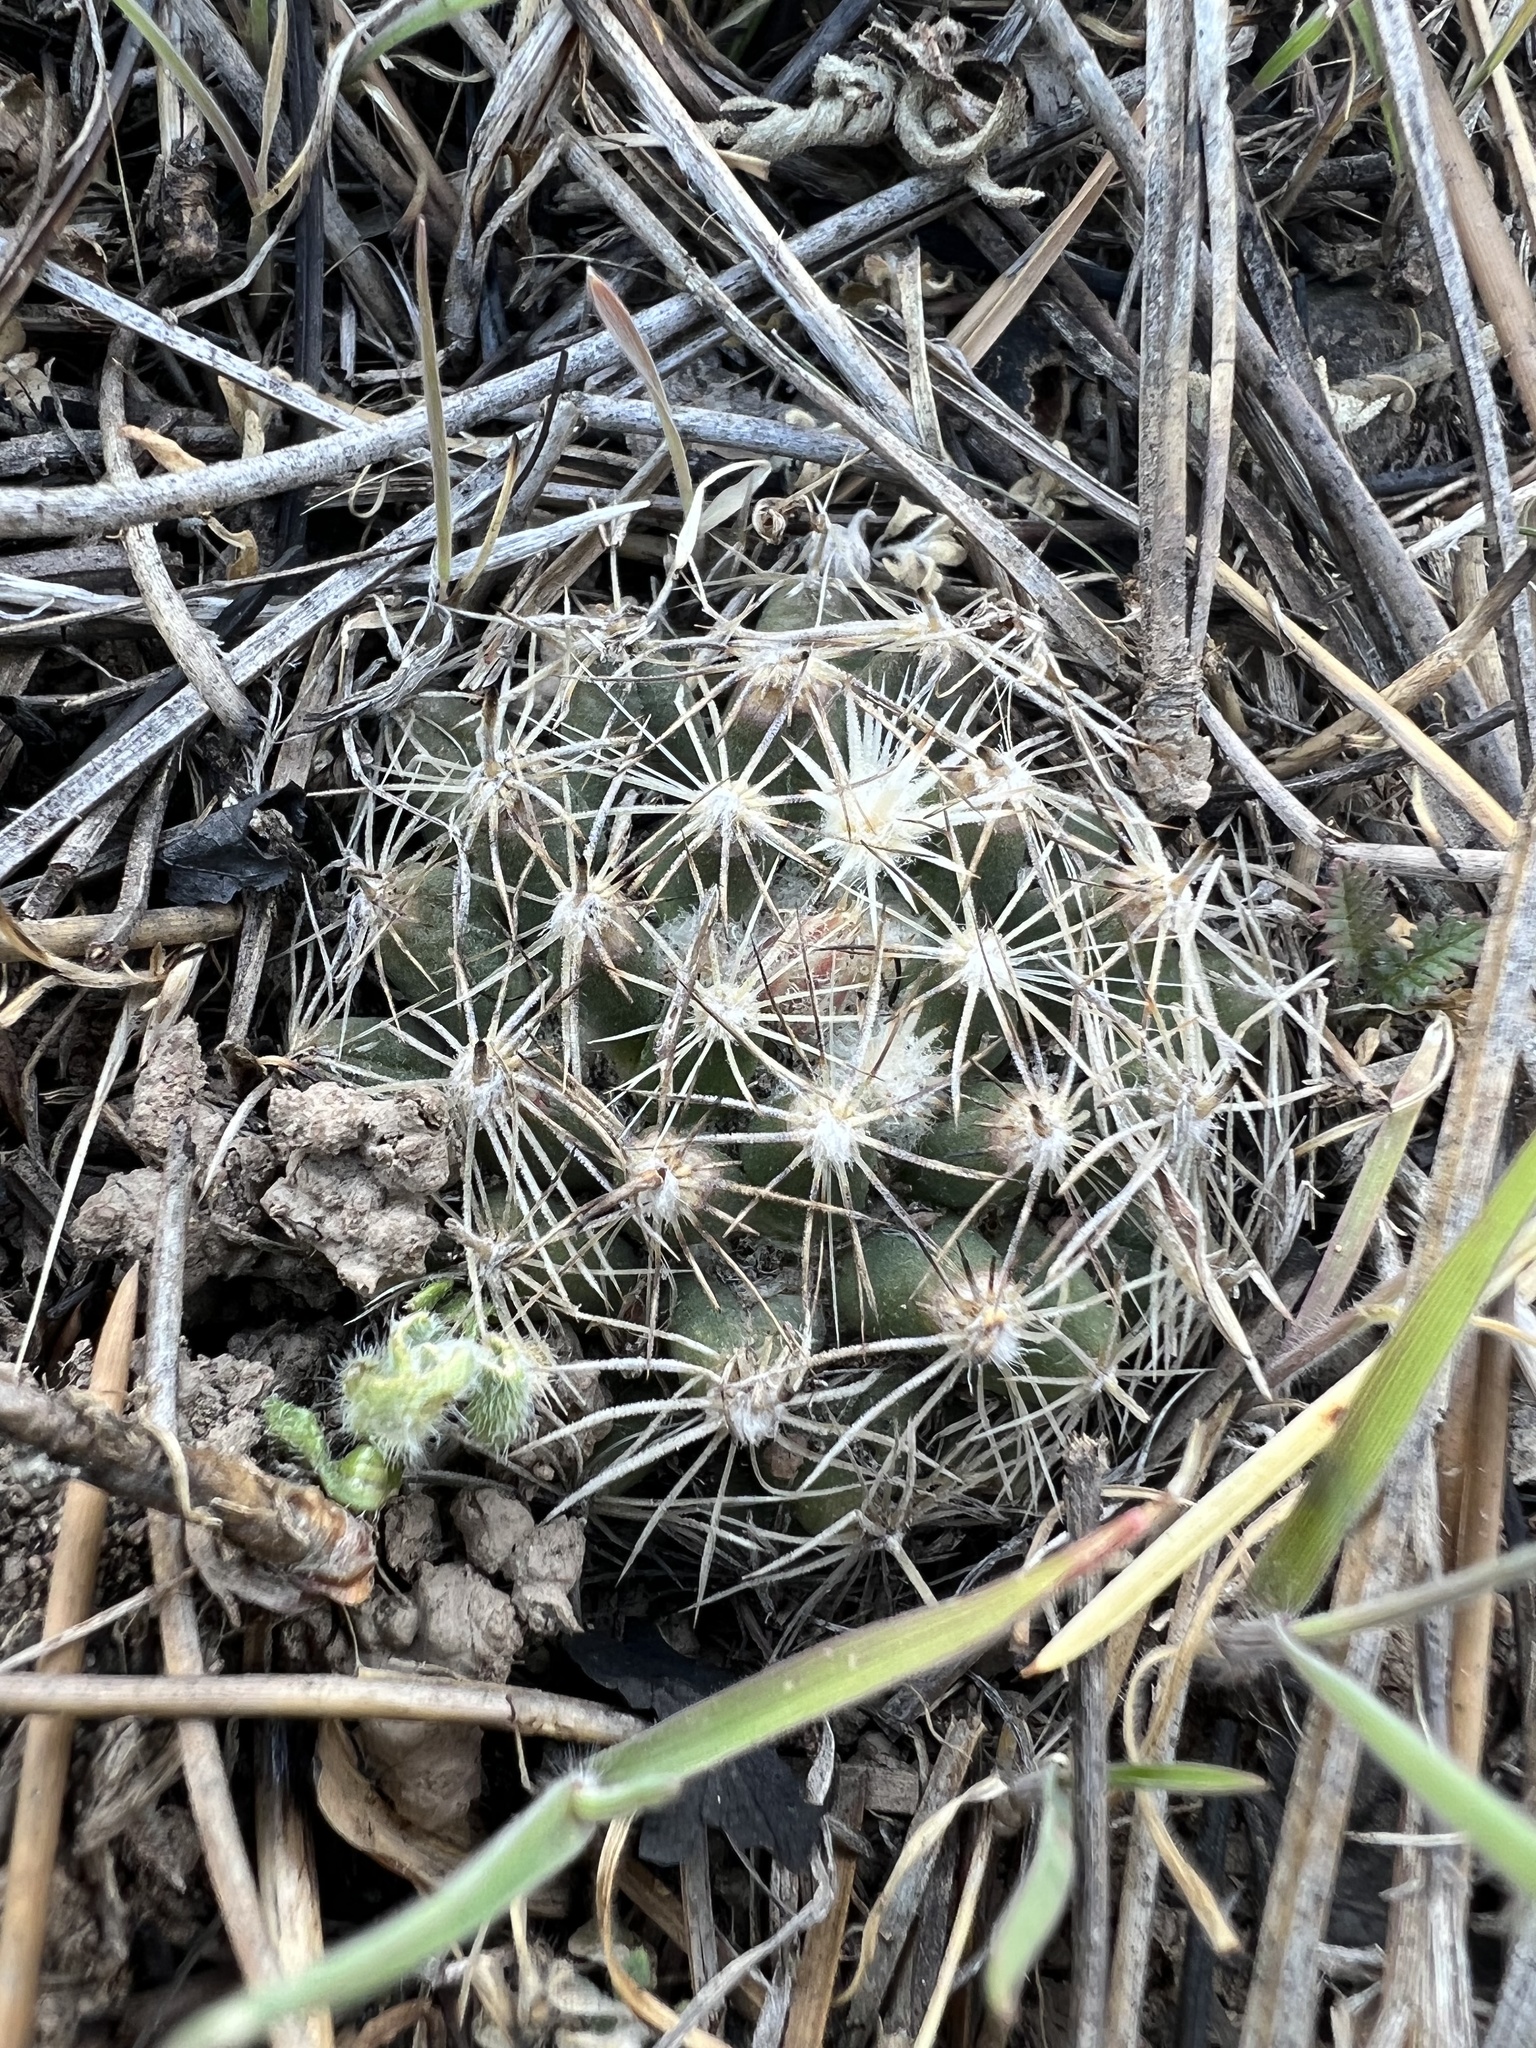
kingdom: Plantae
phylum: Tracheophyta
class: Magnoliopsida
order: Caryophyllales
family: Cactaceae
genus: Pelecyphora
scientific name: Pelecyphora missouriensis
